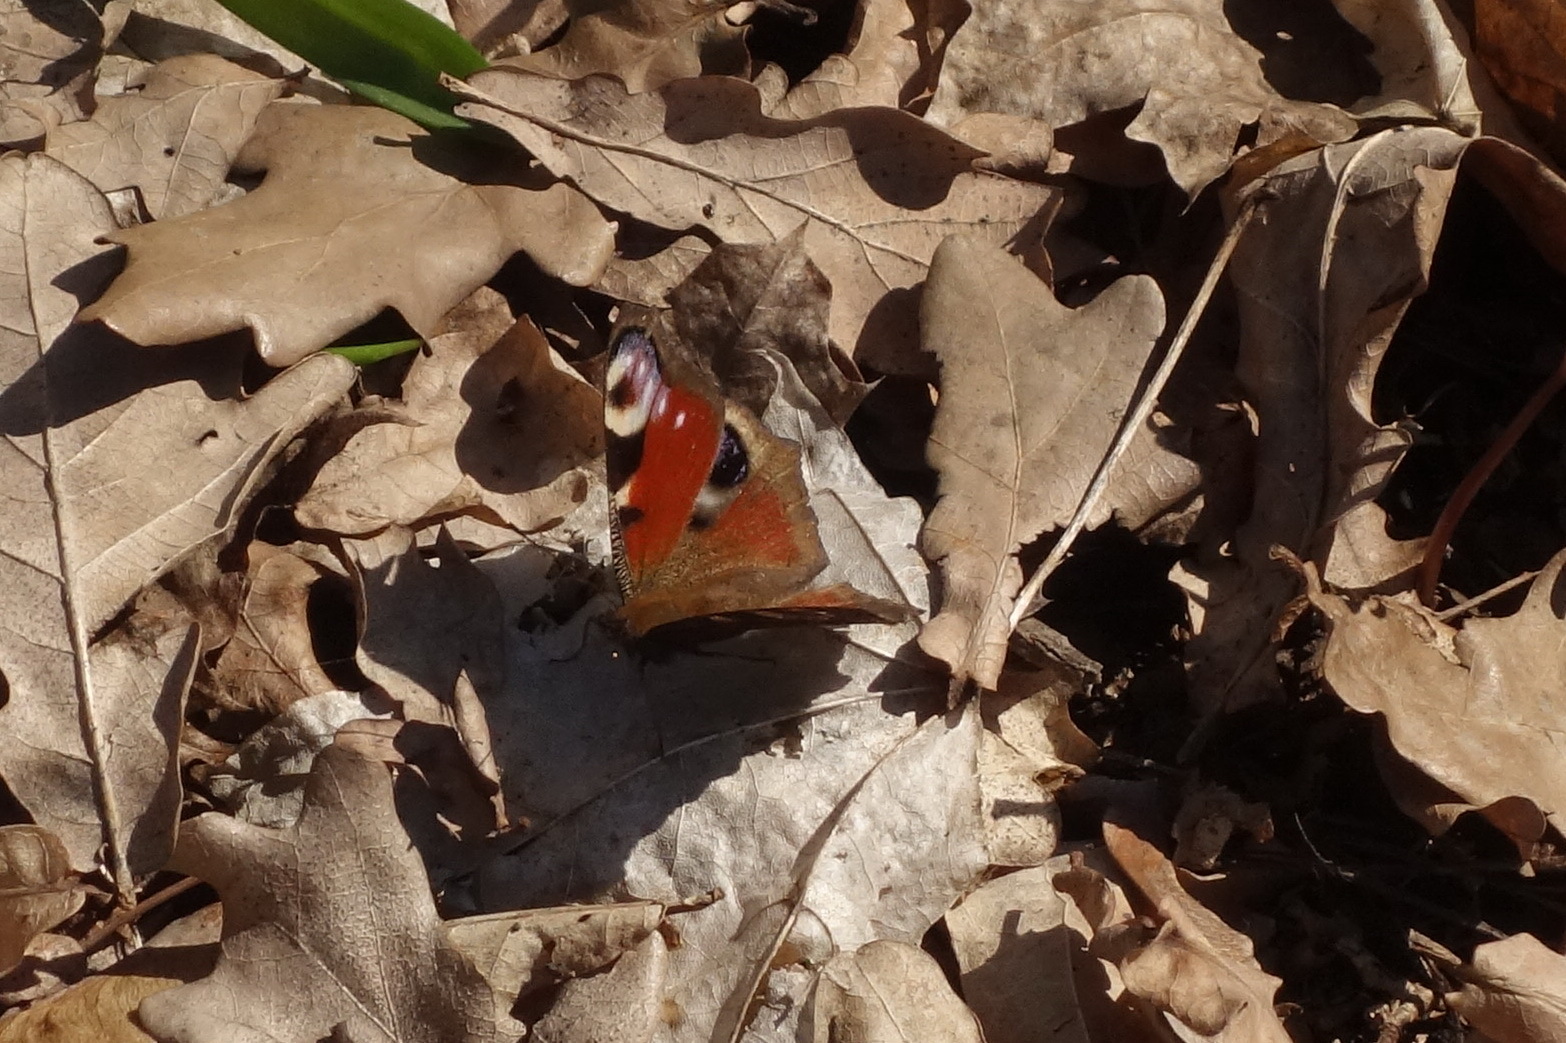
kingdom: Animalia
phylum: Arthropoda
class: Insecta
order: Lepidoptera
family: Nymphalidae
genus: Aglais
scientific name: Aglais io
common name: Peacock
